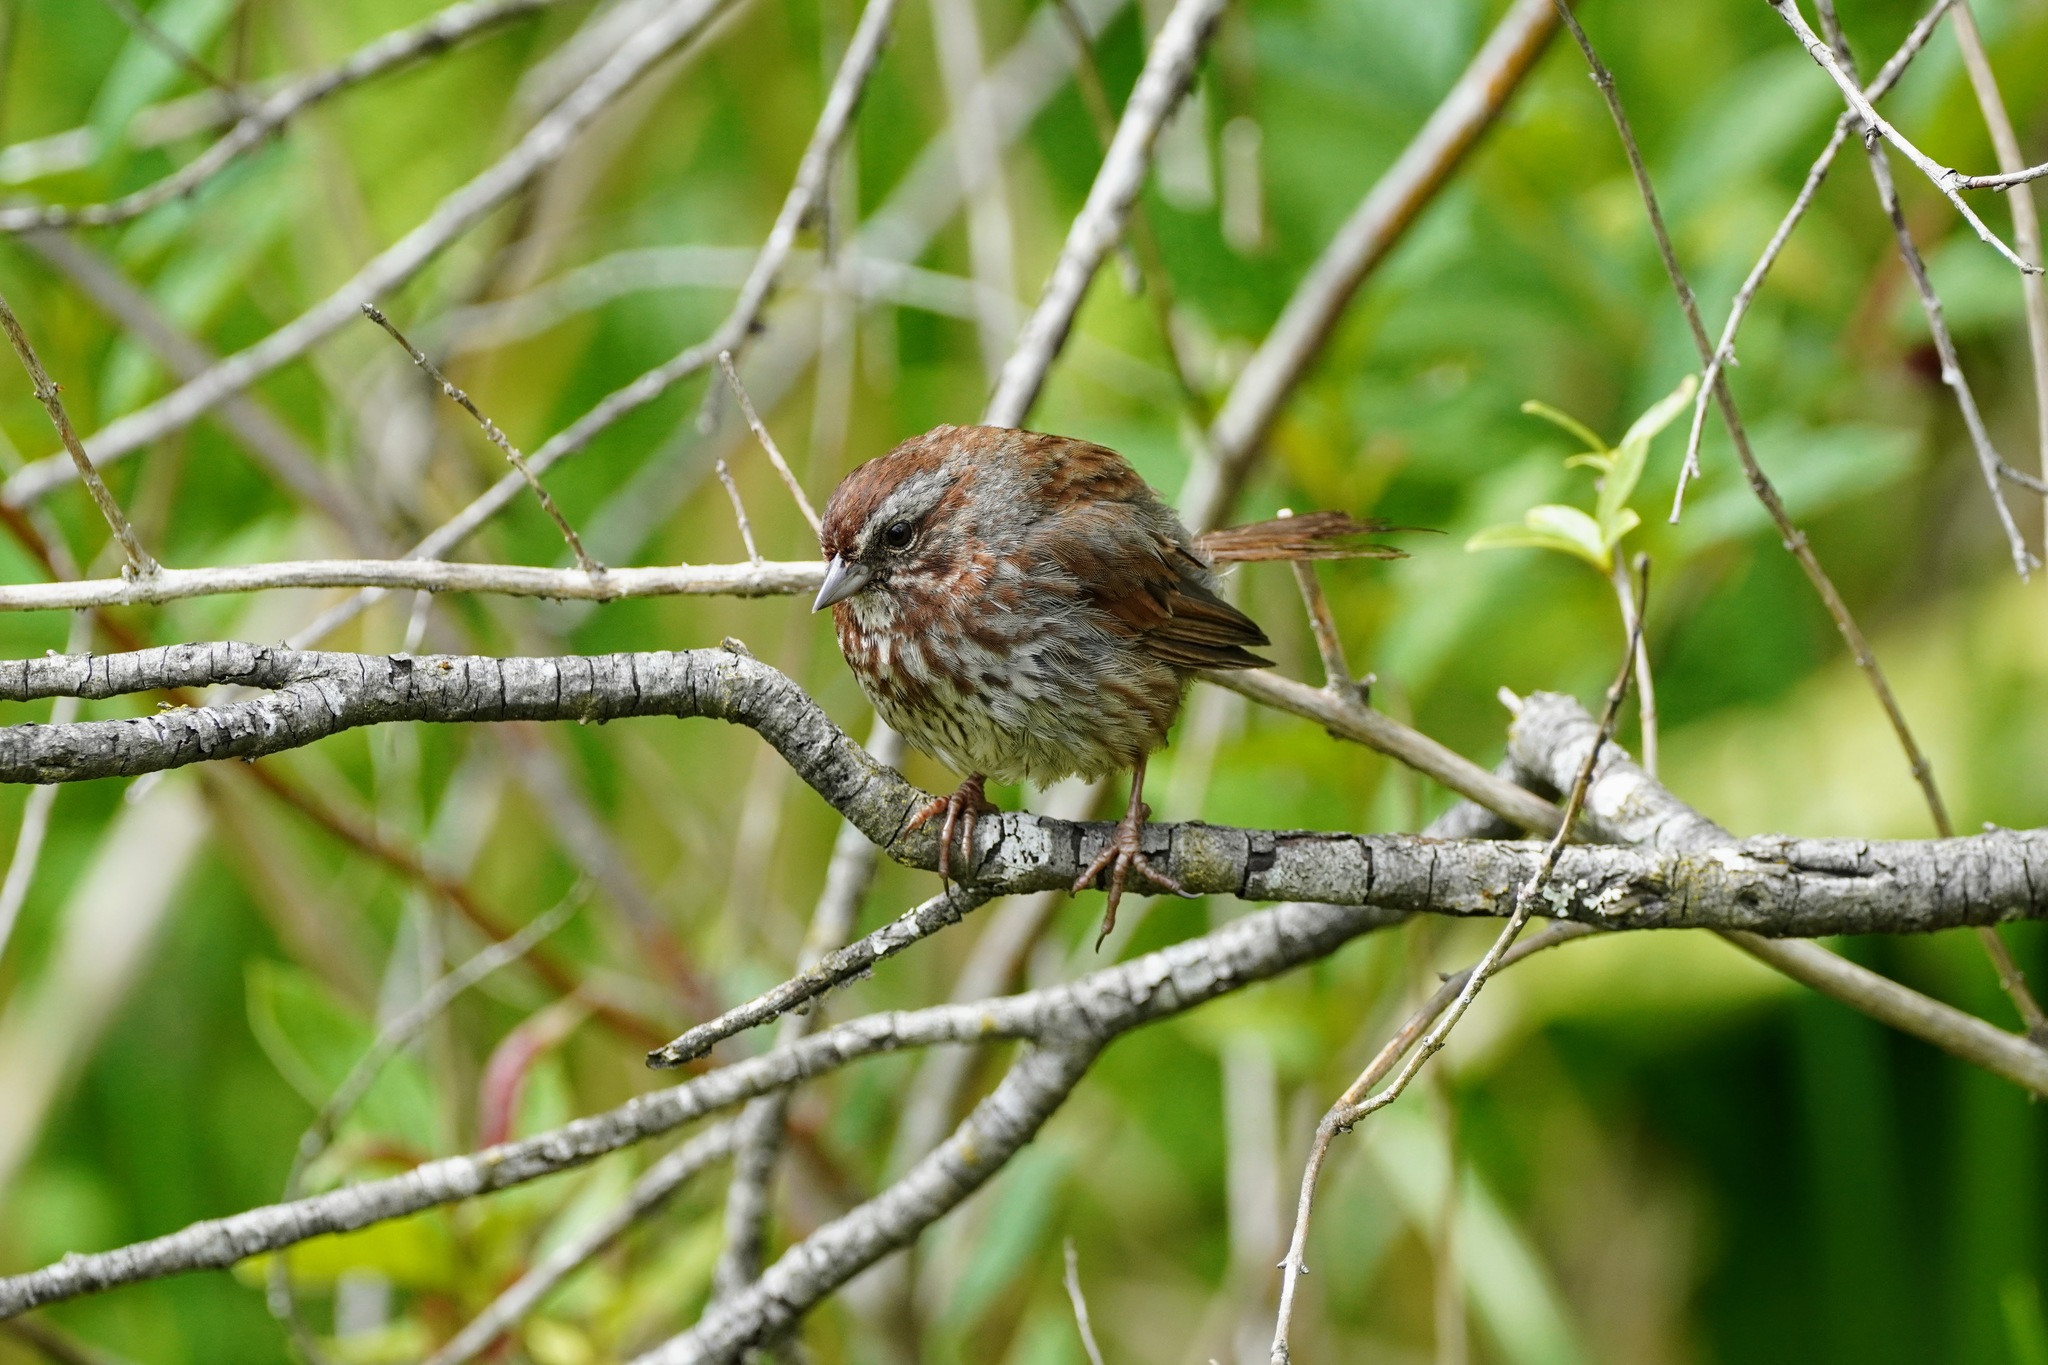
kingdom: Animalia
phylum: Chordata
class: Aves
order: Passeriformes
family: Passerellidae
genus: Melospiza
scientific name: Melospiza melodia
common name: Song sparrow
